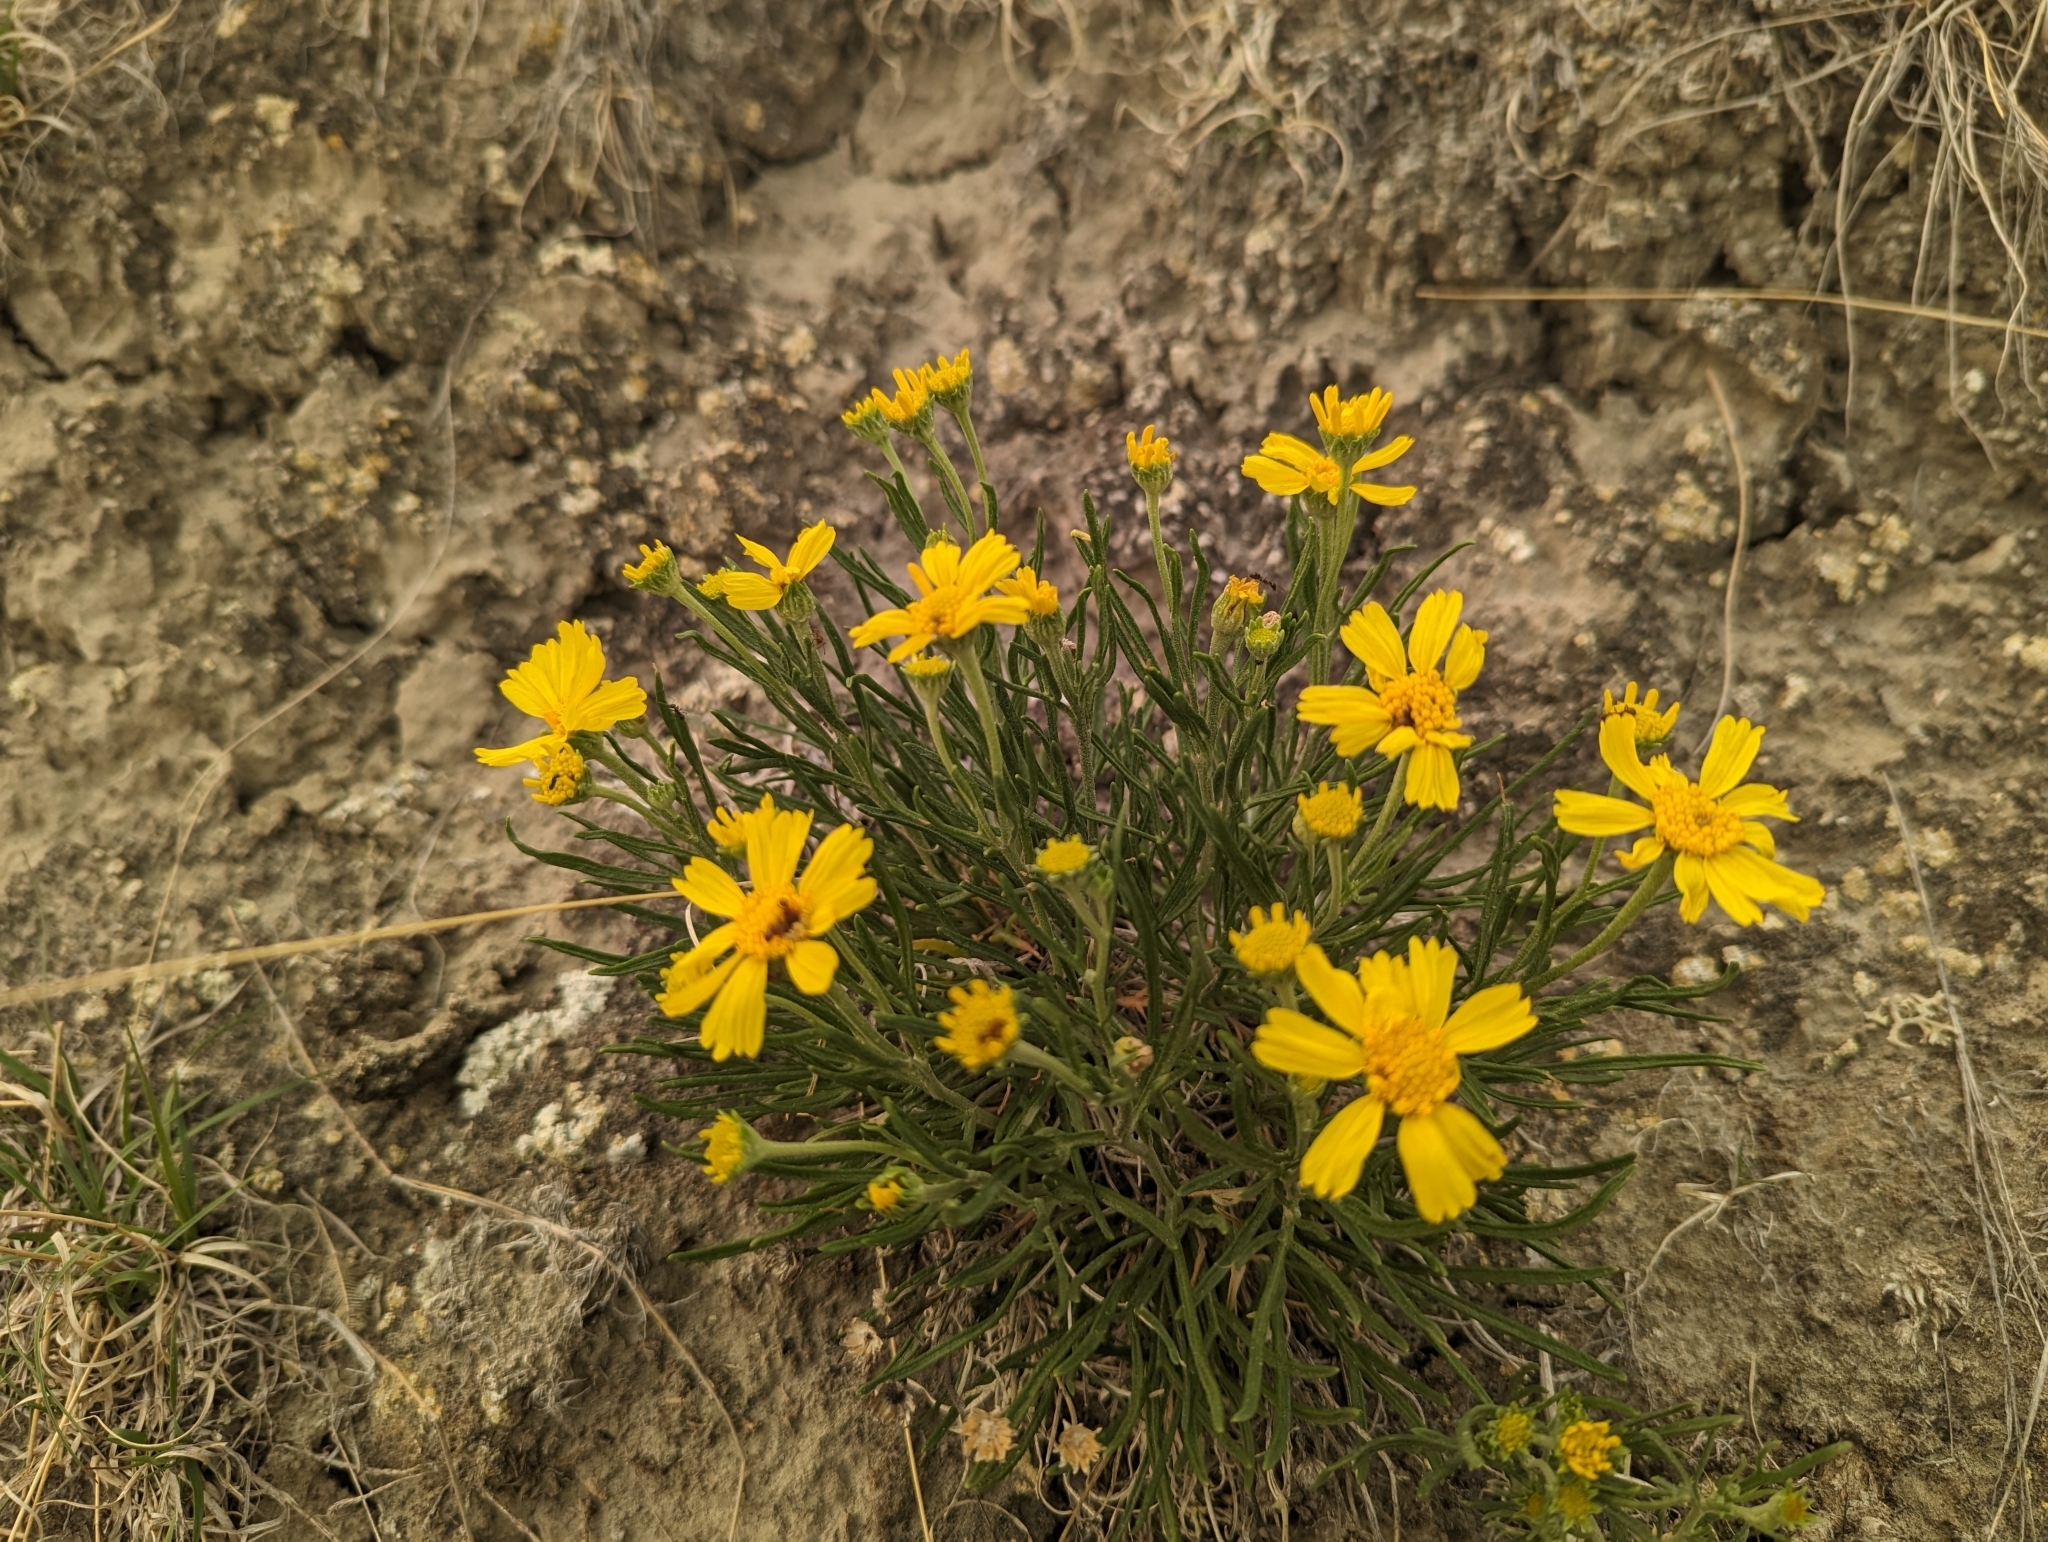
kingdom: Plantae
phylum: Tracheophyta
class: Magnoliopsida
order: Asterales
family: Asteraceae
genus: Hymenoxys
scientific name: Hymenoxys richardsonii
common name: Pingue rubberweed
